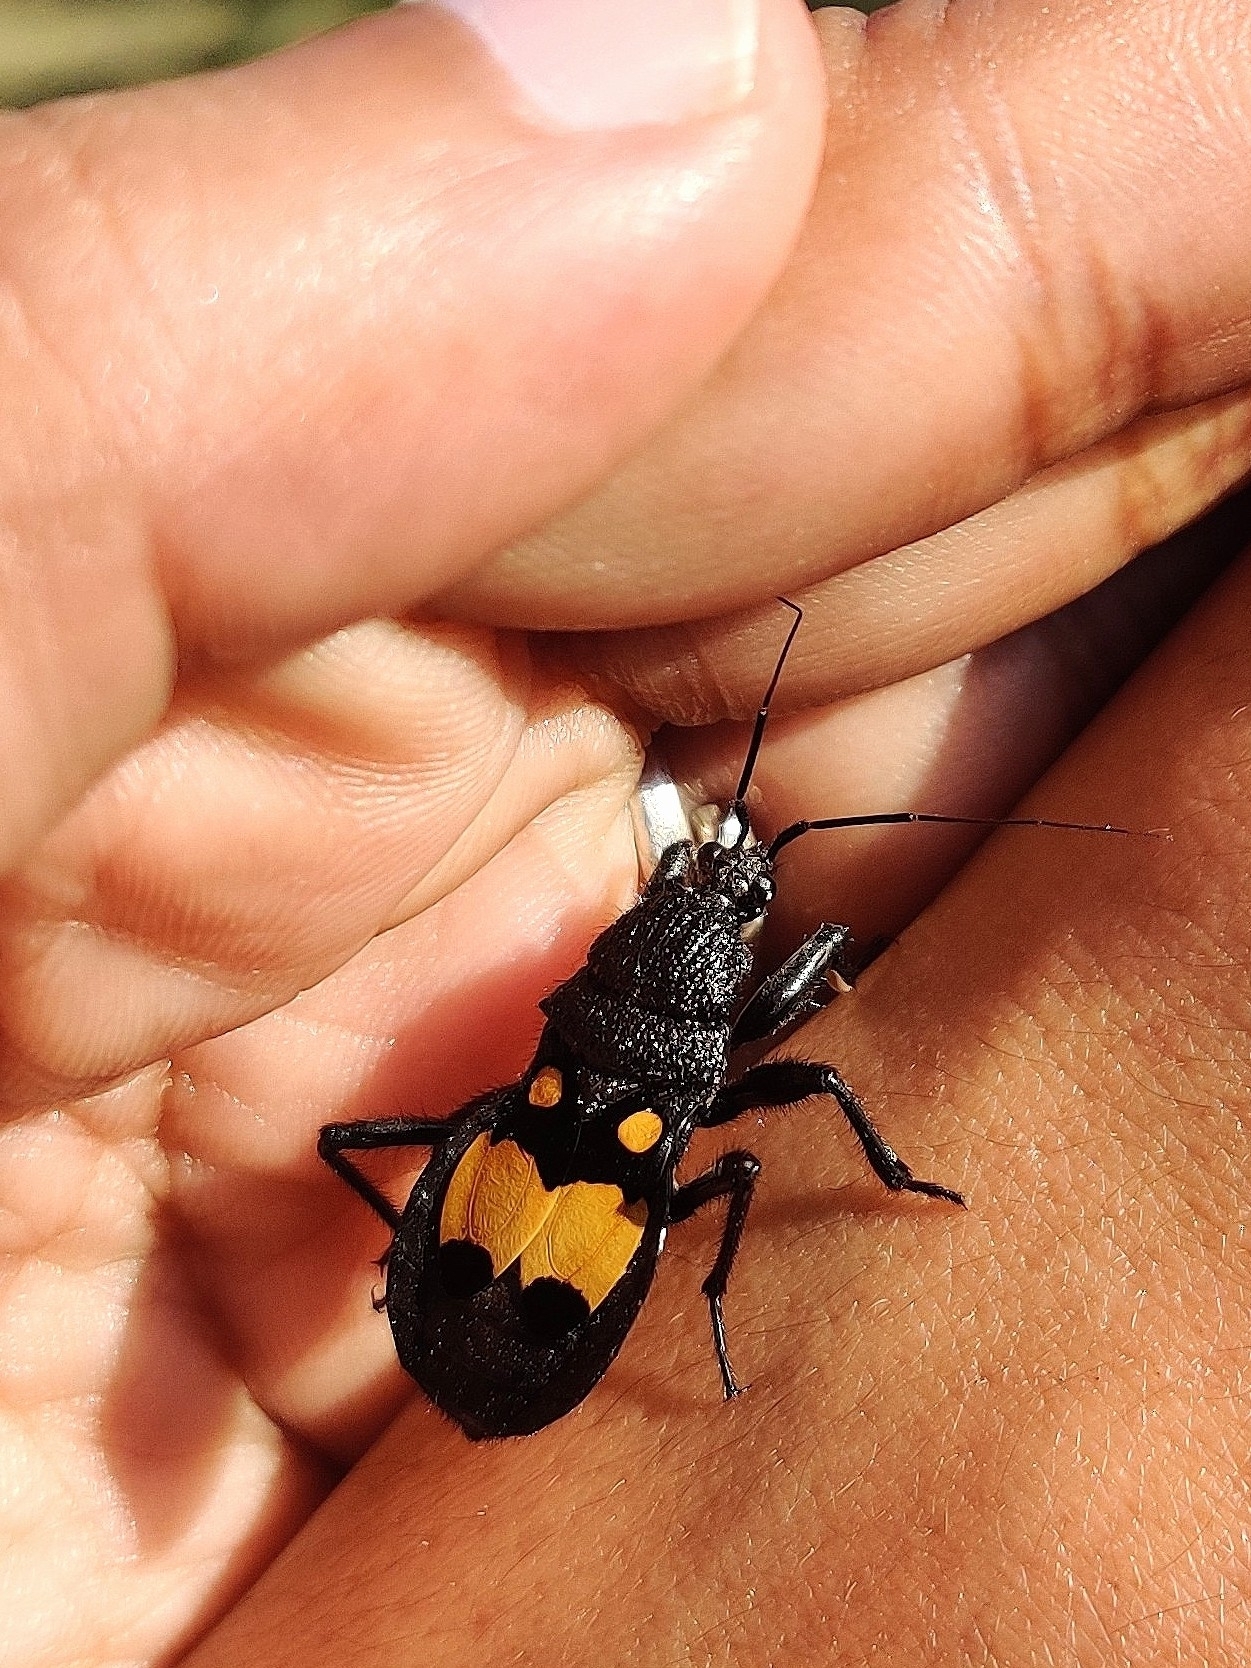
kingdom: Animalia
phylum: Arthropoda
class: Insecta
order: Hemiptera
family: Reduviidae
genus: Catamiarus
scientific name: Catamiarus brevipennis
